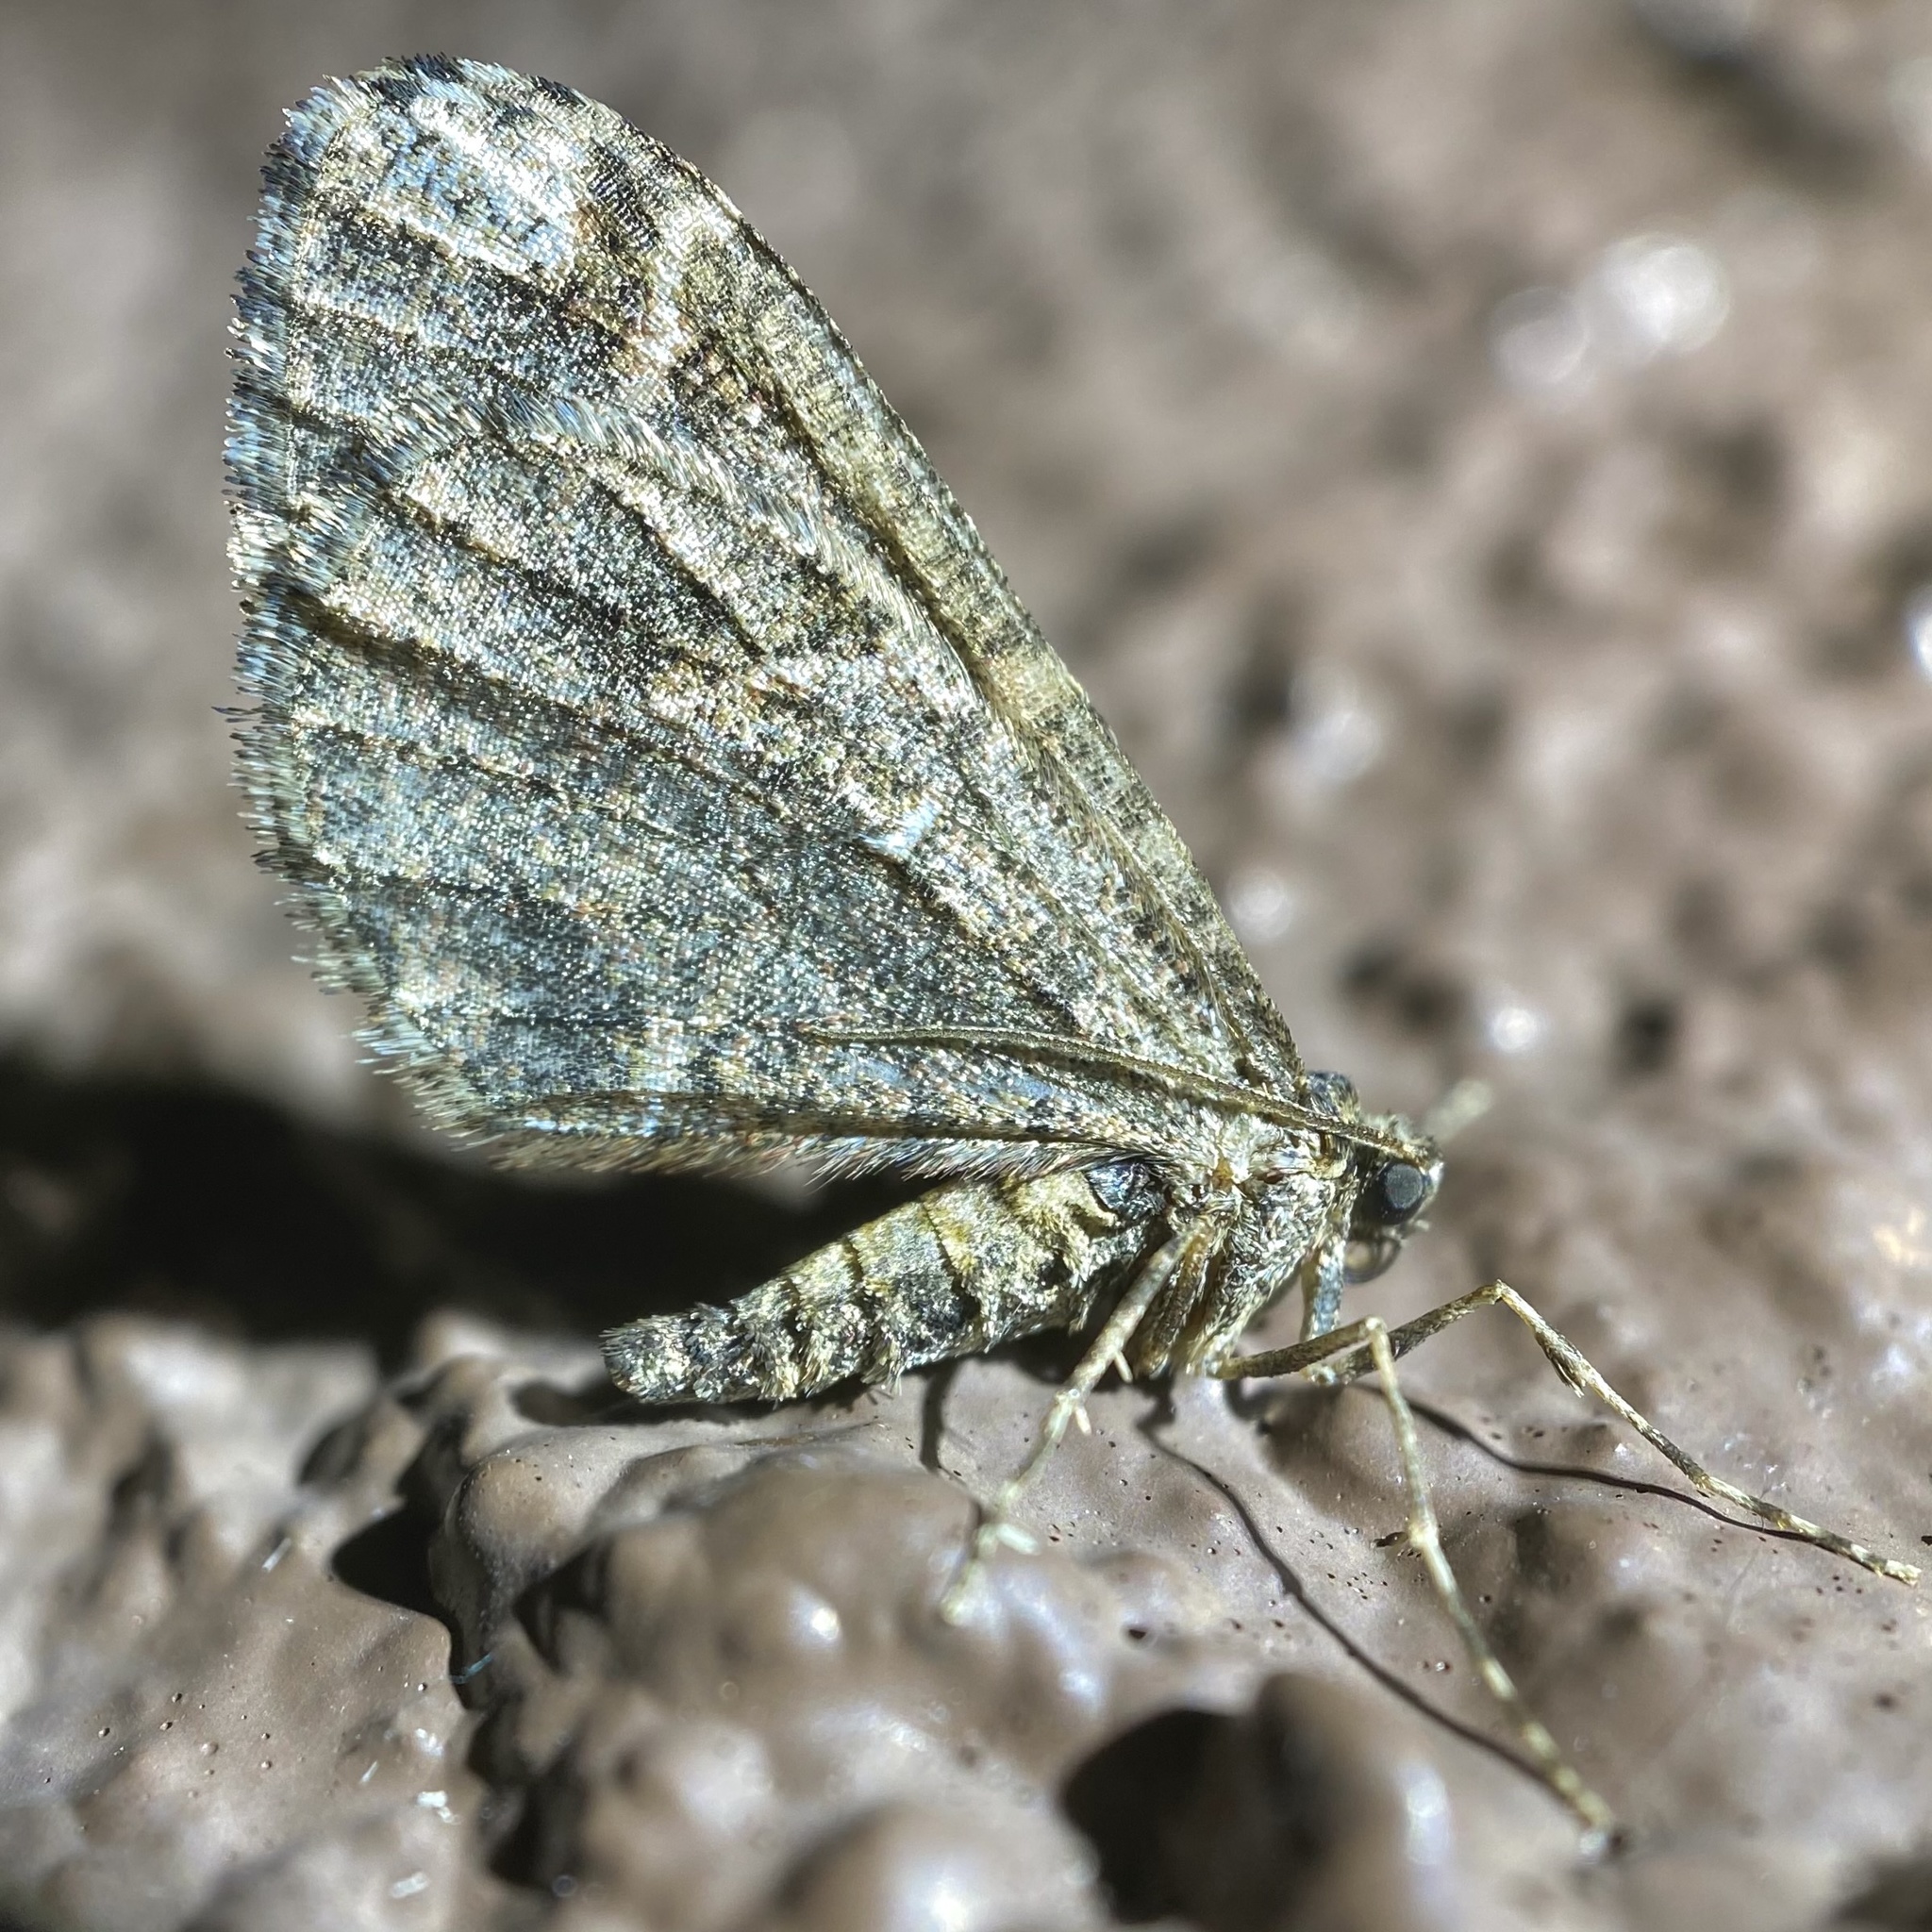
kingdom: Animalia
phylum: Arthropoda
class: Insecta
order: Lepidoptera
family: Geometridae
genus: Stamnodes
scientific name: Stamnodes albiapicata
